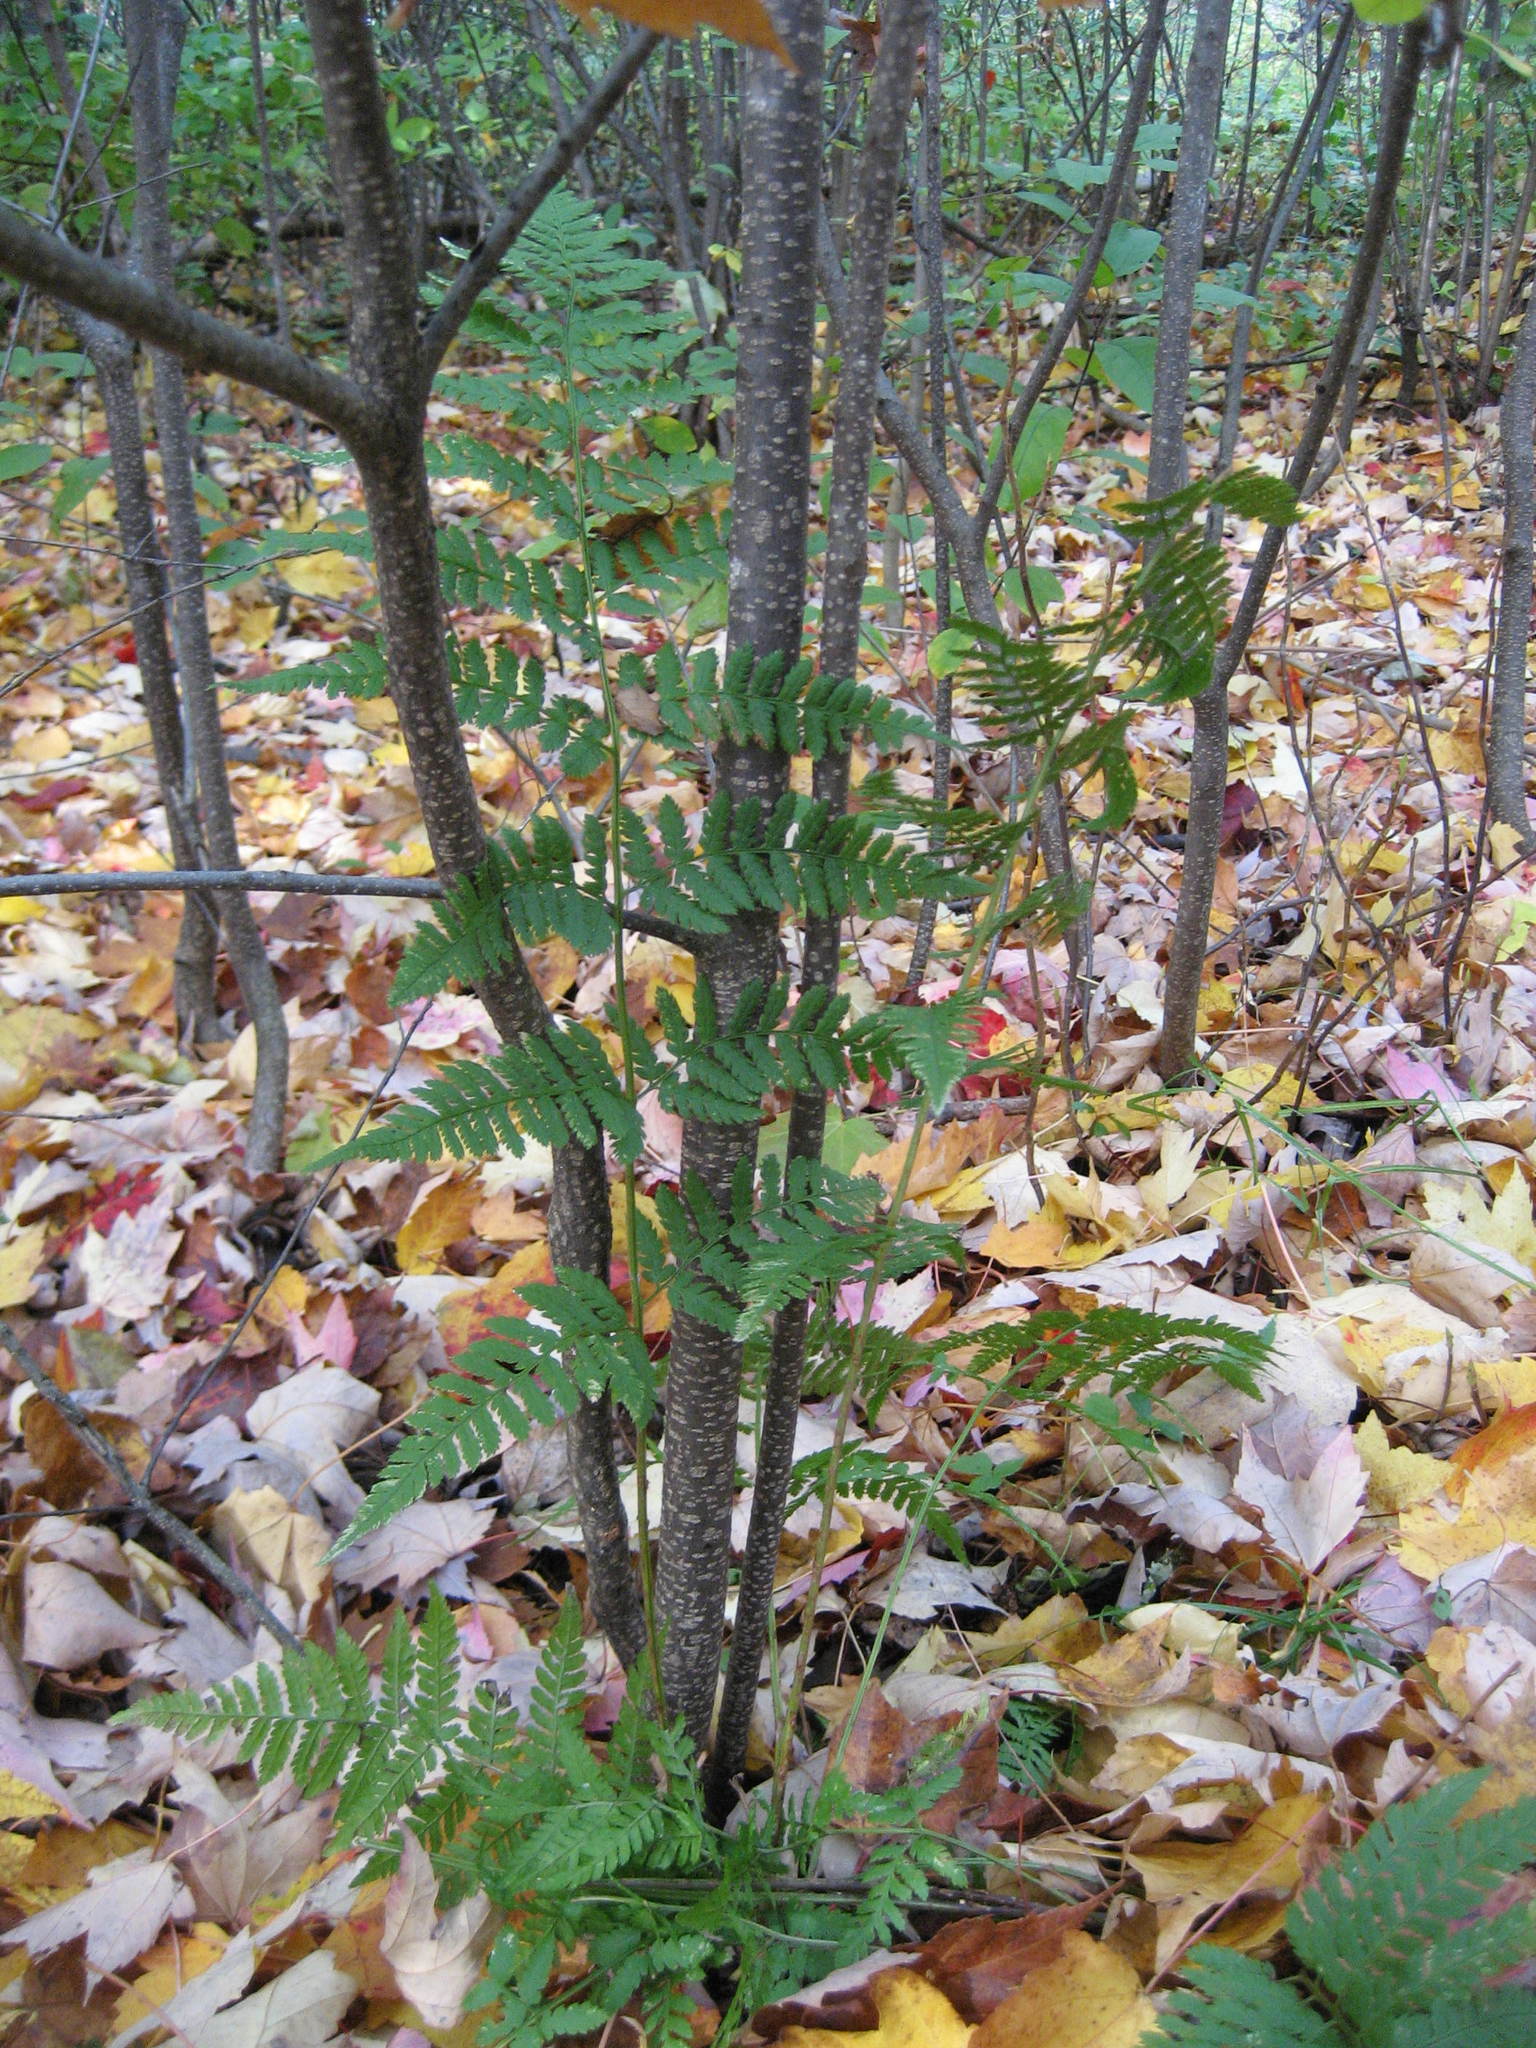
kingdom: Plantae
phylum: Tracheophyta
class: Polypodiopsida
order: Polypodiales
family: Dryopteridaceae
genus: Dryopteris
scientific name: Dryopteris carthusiana
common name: Narrow buckler-fern
